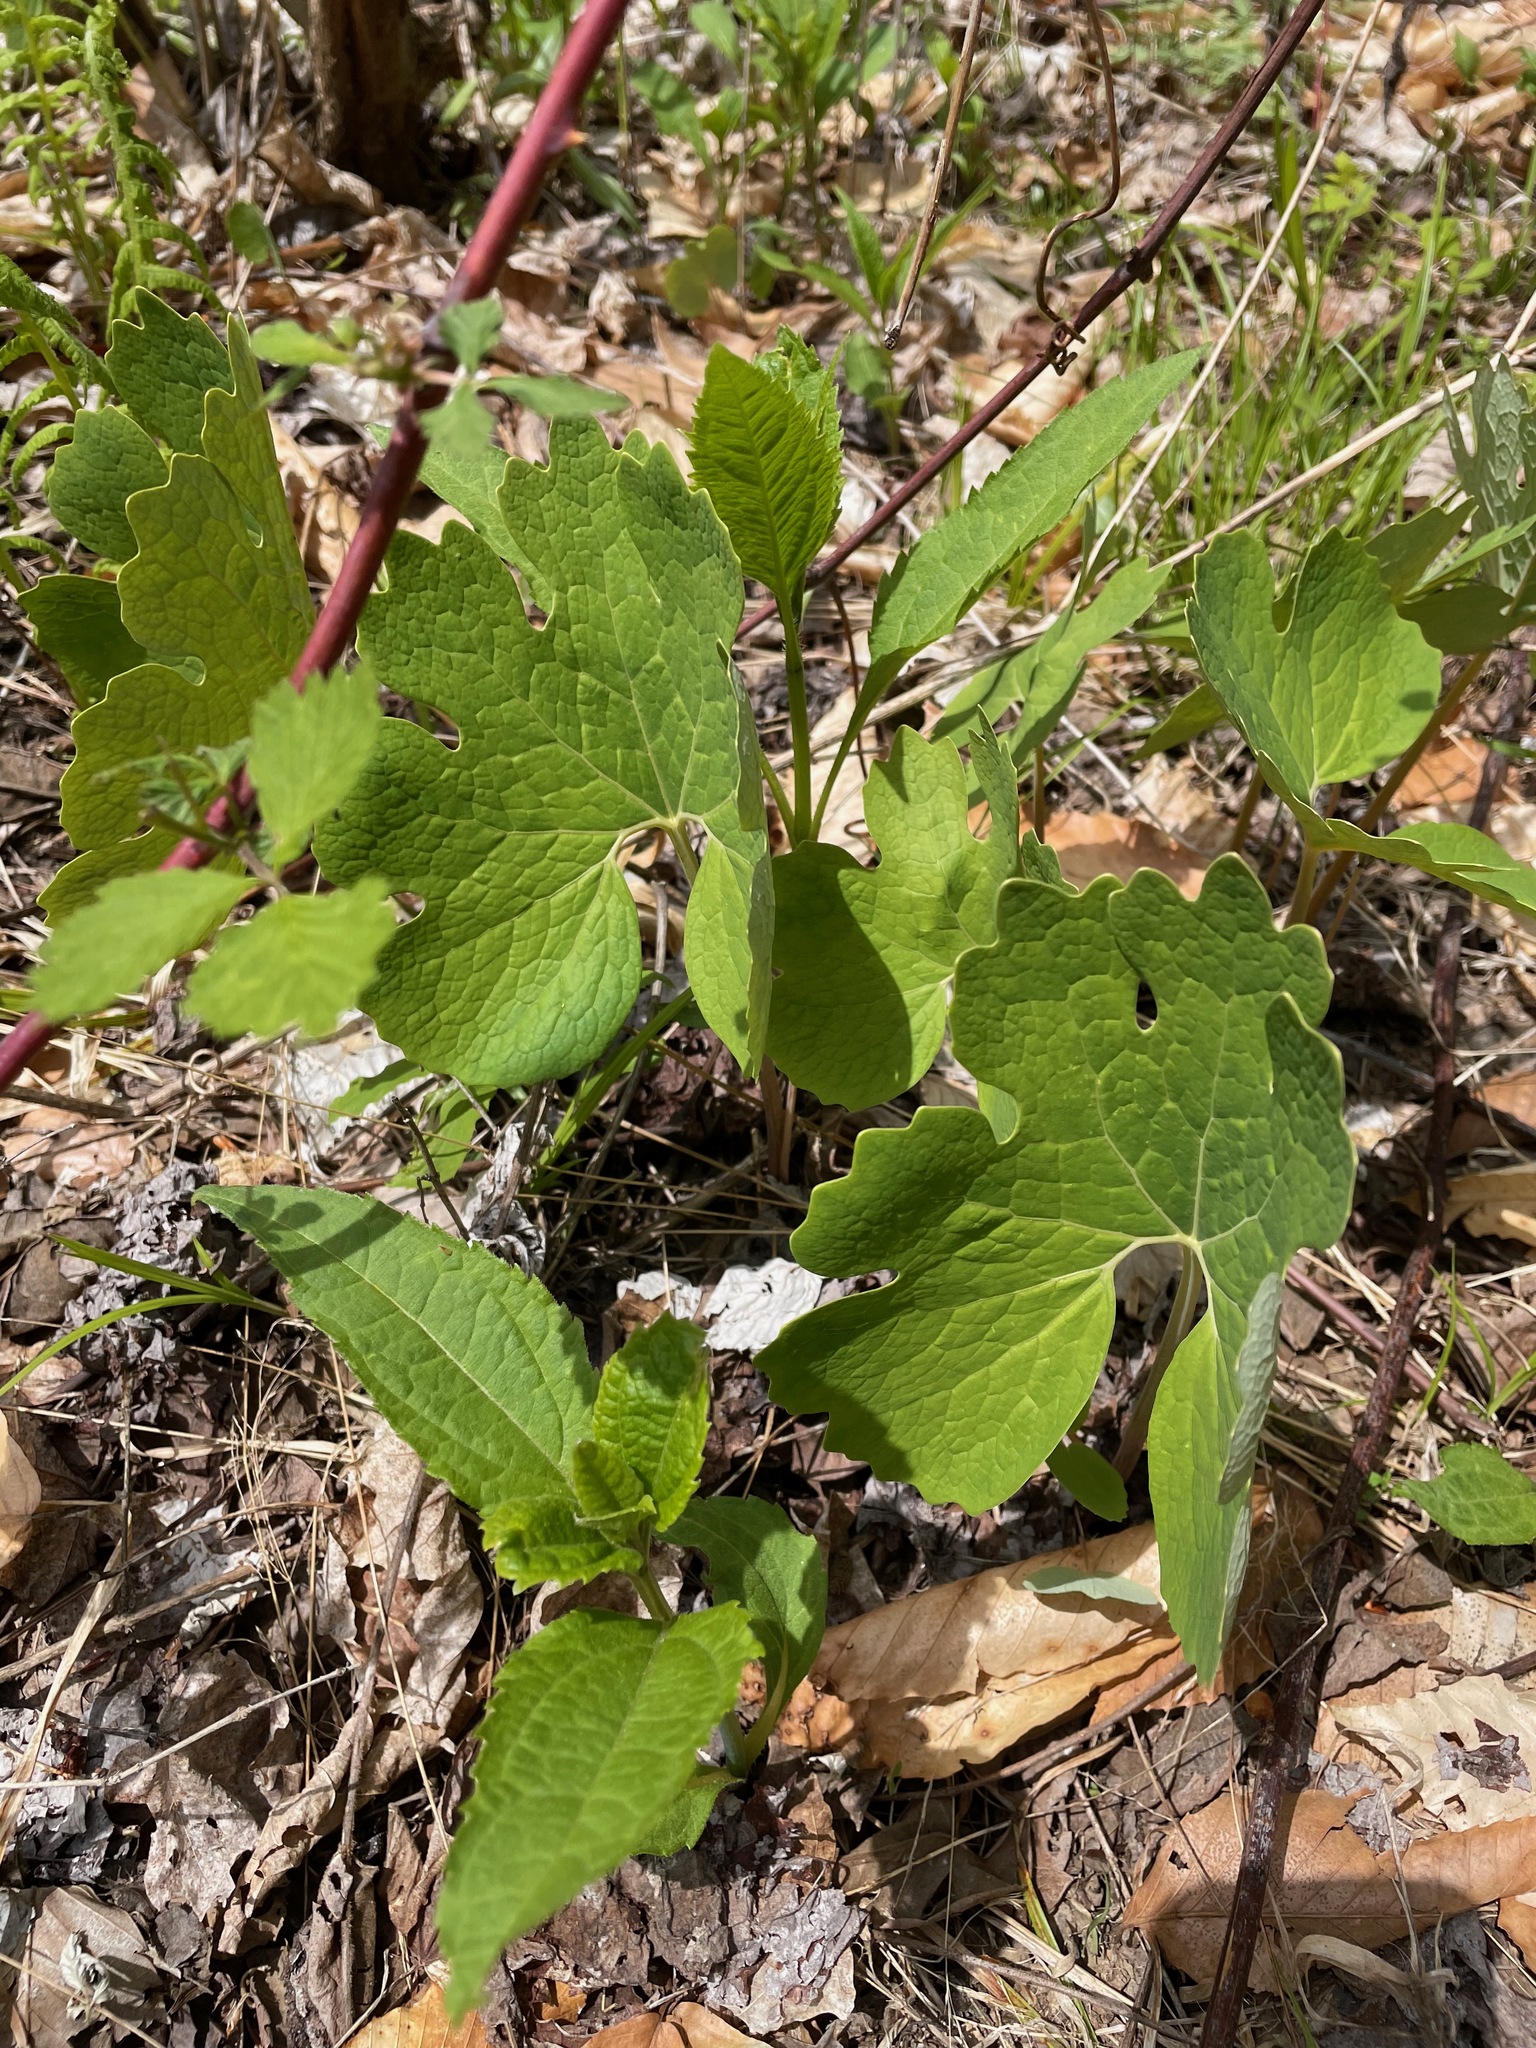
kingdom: Plantae
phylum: Tracheophyta
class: Magnoliopsida
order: Ranunculales
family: Papaveraceae
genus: Sanguinaria
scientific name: Sanguinaria canadensis
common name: Bloodroot
